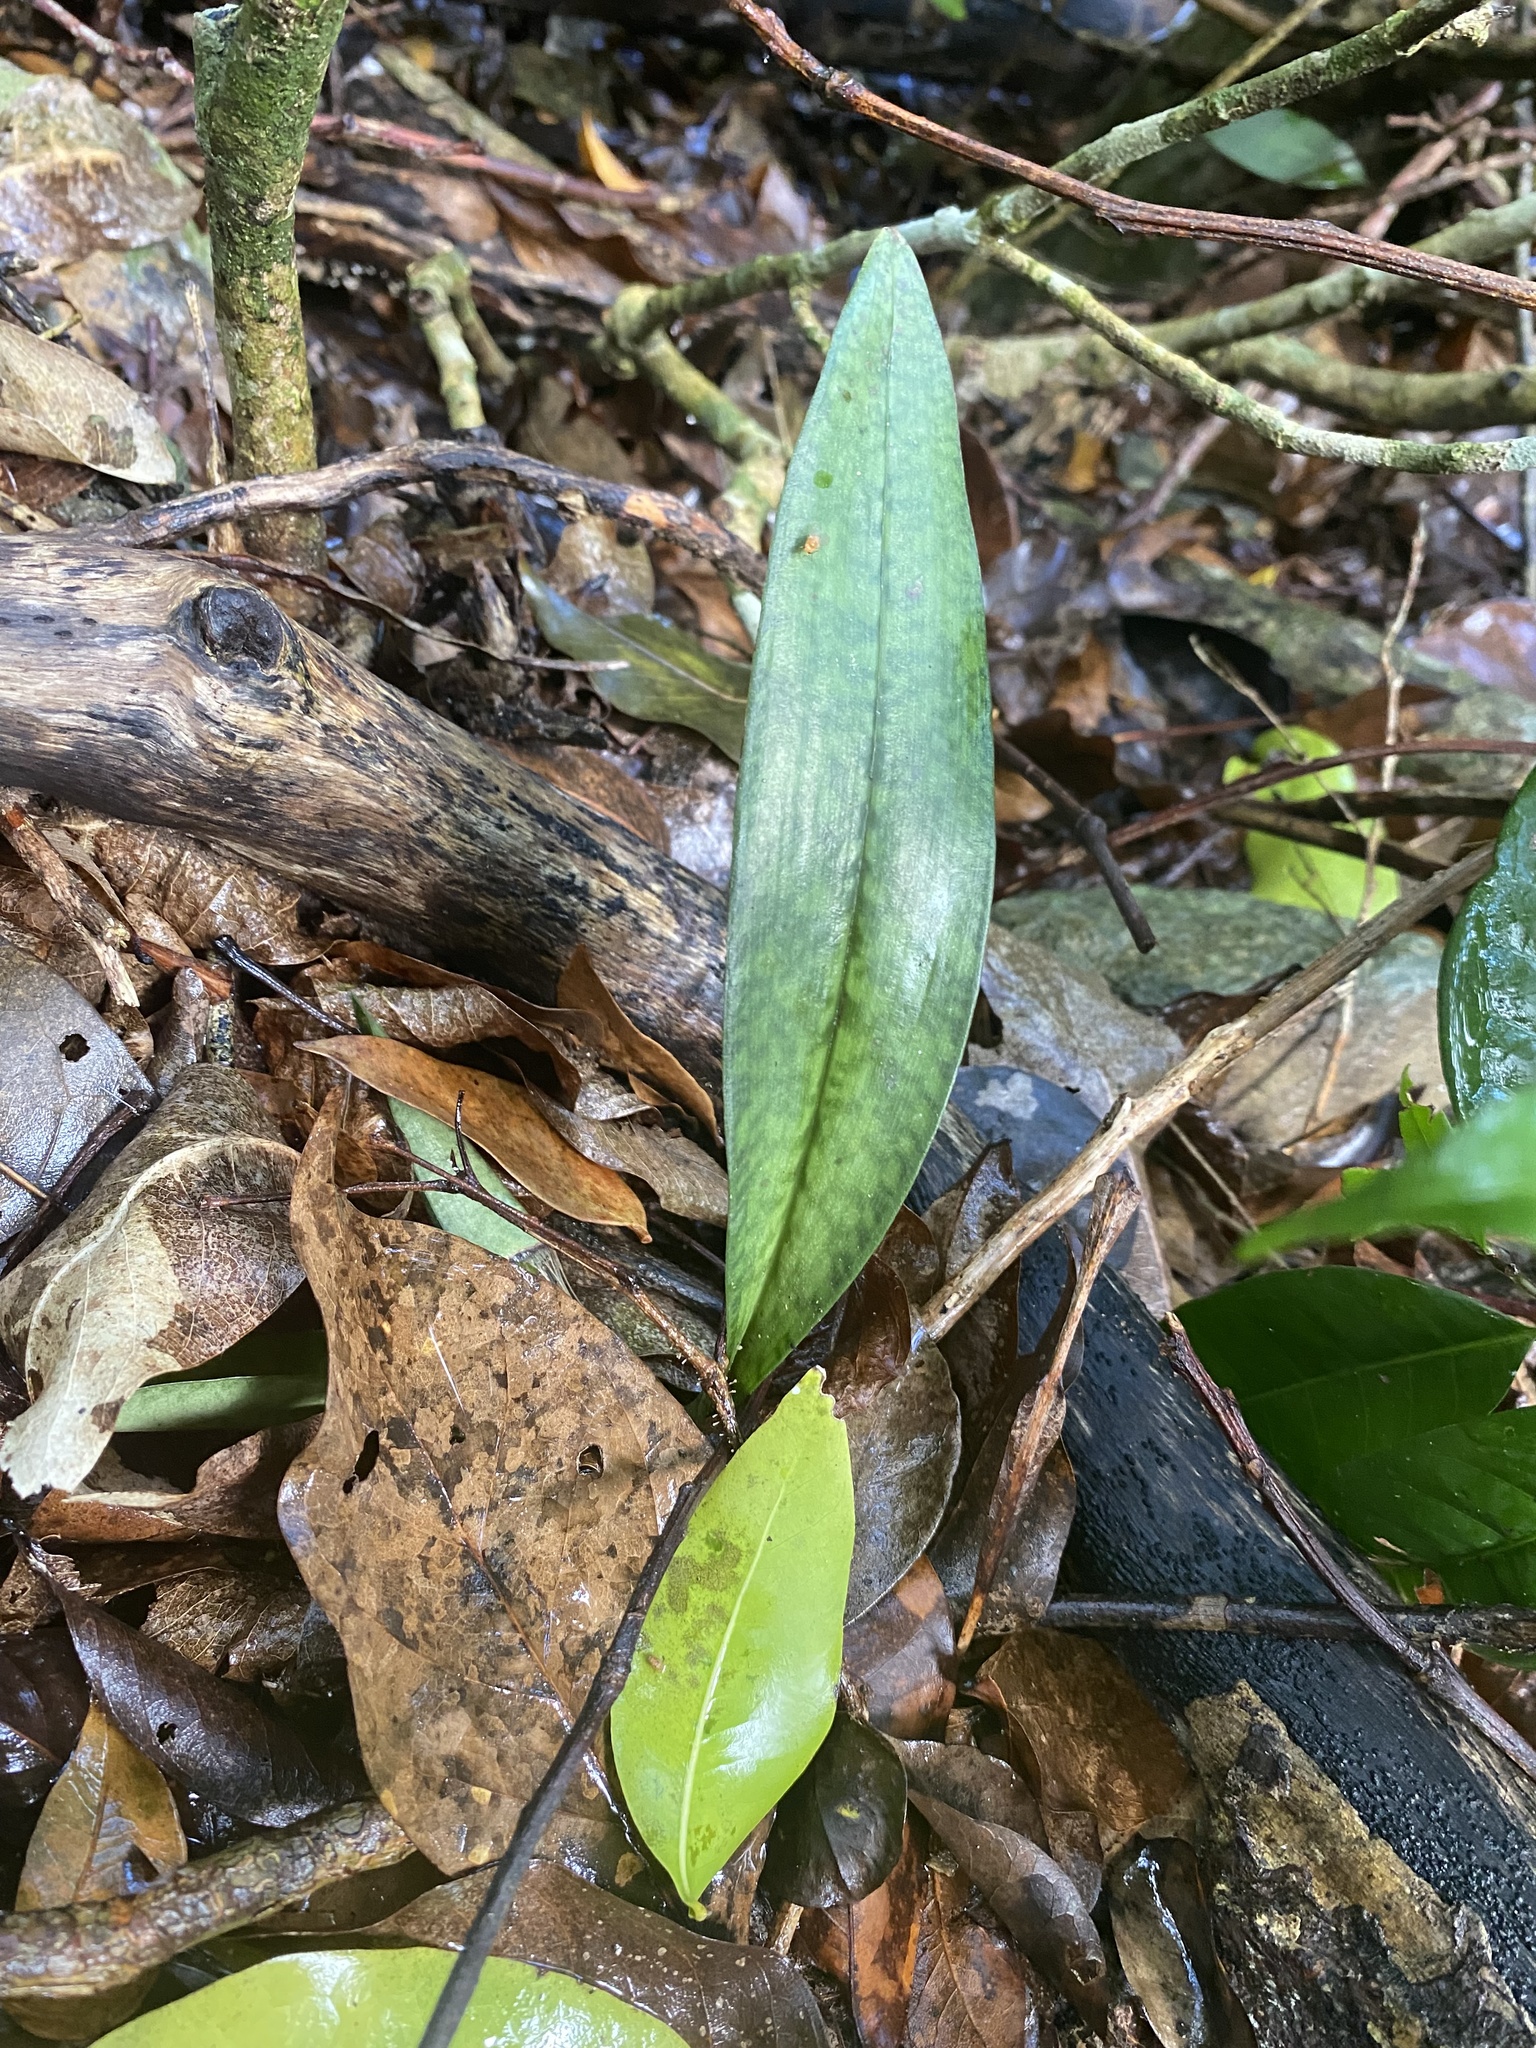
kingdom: Plantae
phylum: Tracheophyta
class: Liliopsida
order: Asparagales
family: Orchidaceae
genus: Eulophia
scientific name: Eulophia maculata
